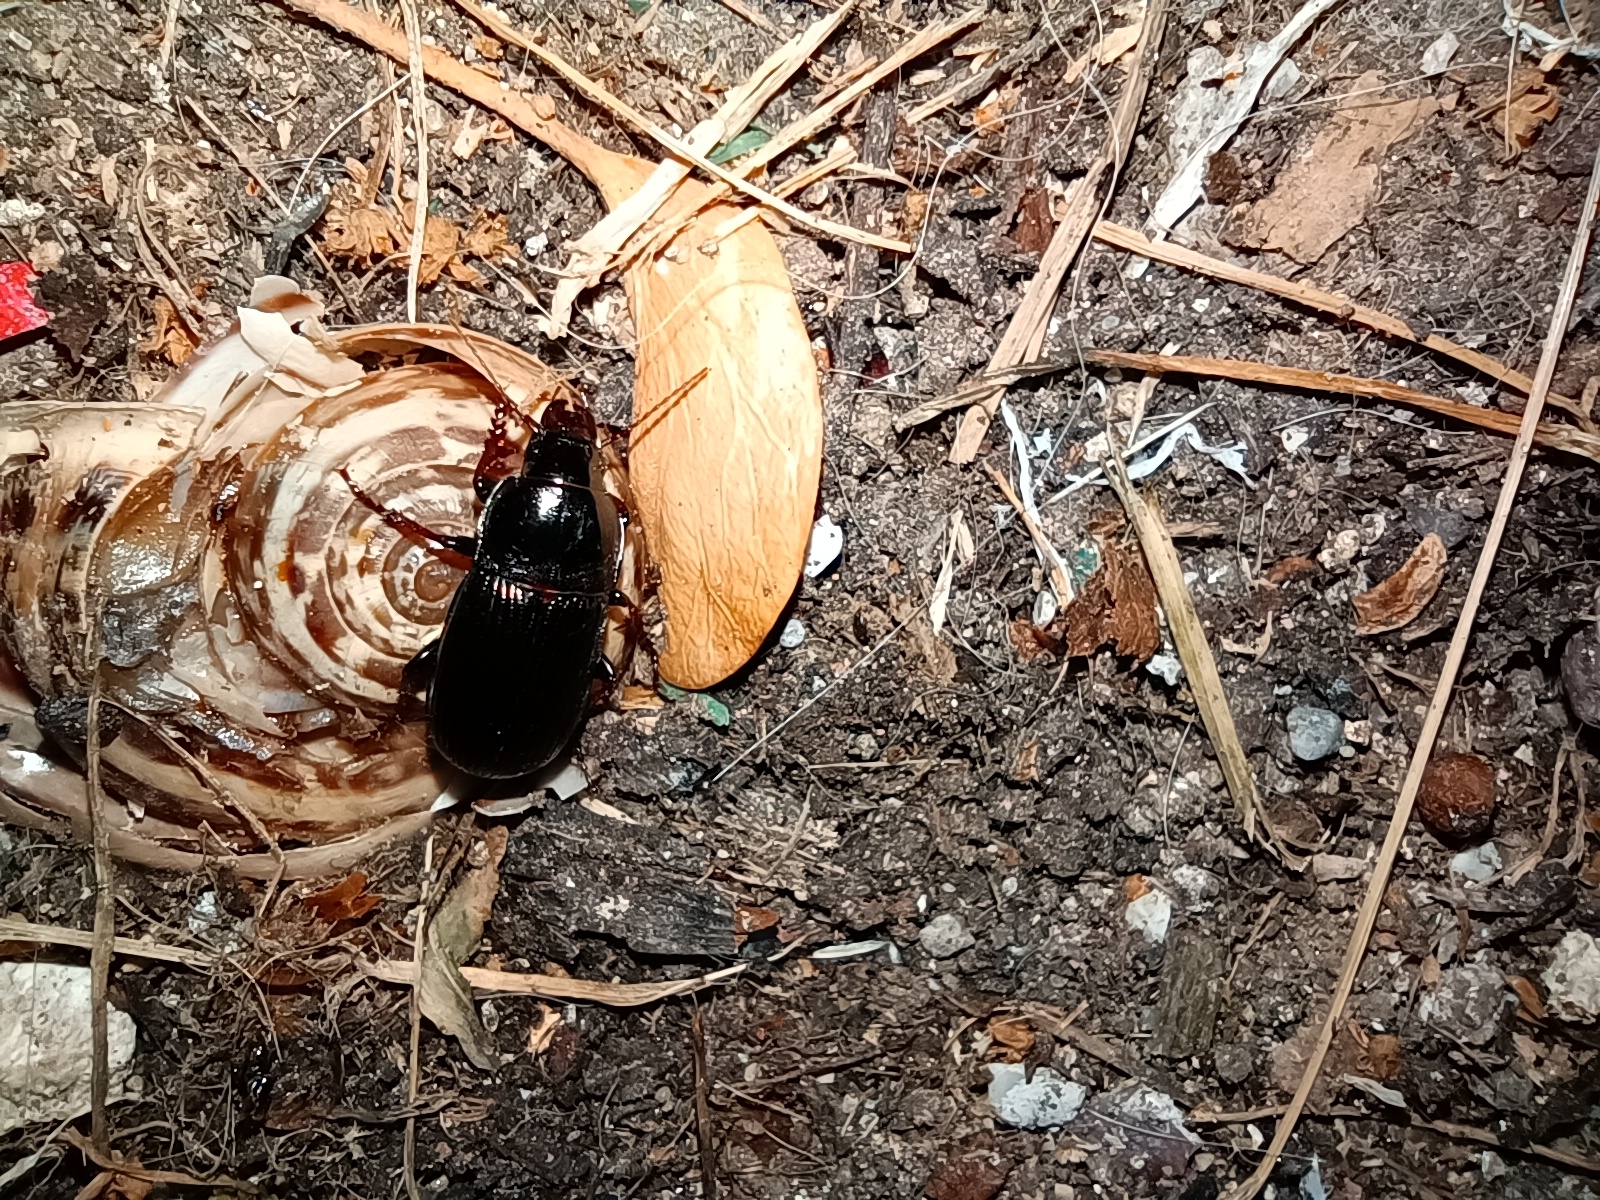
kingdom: Animalia
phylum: Arthropoda
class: Insecta
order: Coleoptera
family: Carabidae
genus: Zabrus
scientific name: Zabrus tenebrioides
